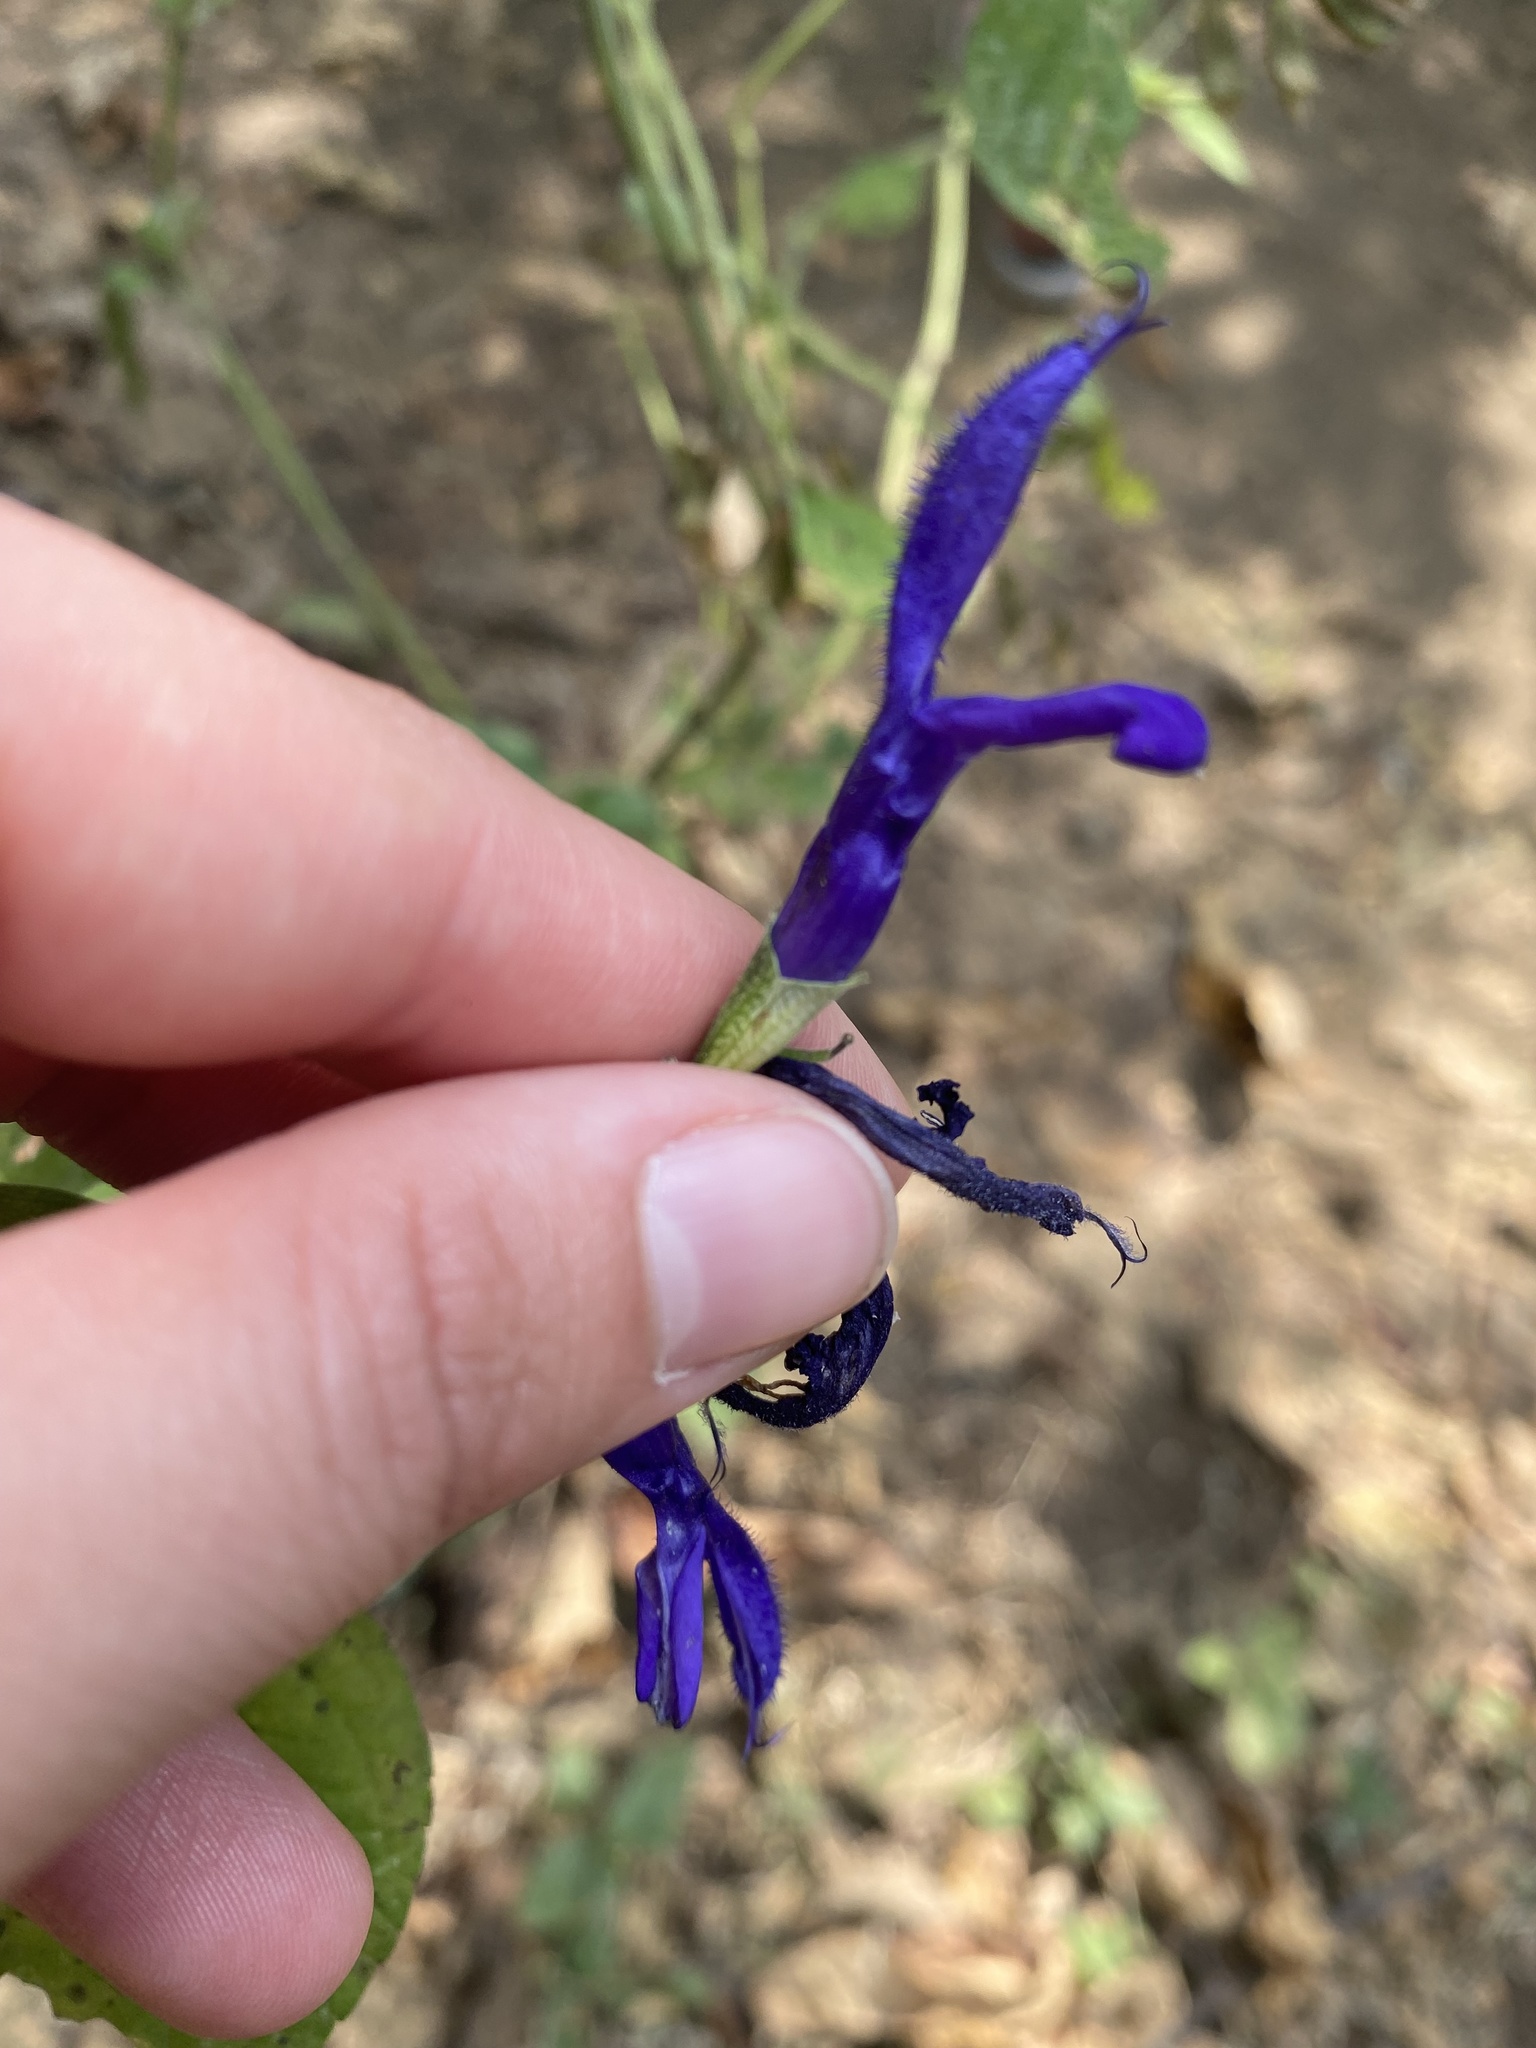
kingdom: Plantae
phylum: Tracheophyta
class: Magnoliopsida
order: Lamiales
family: Lamiaceae
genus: Salvia
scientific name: Salvia mexicana
